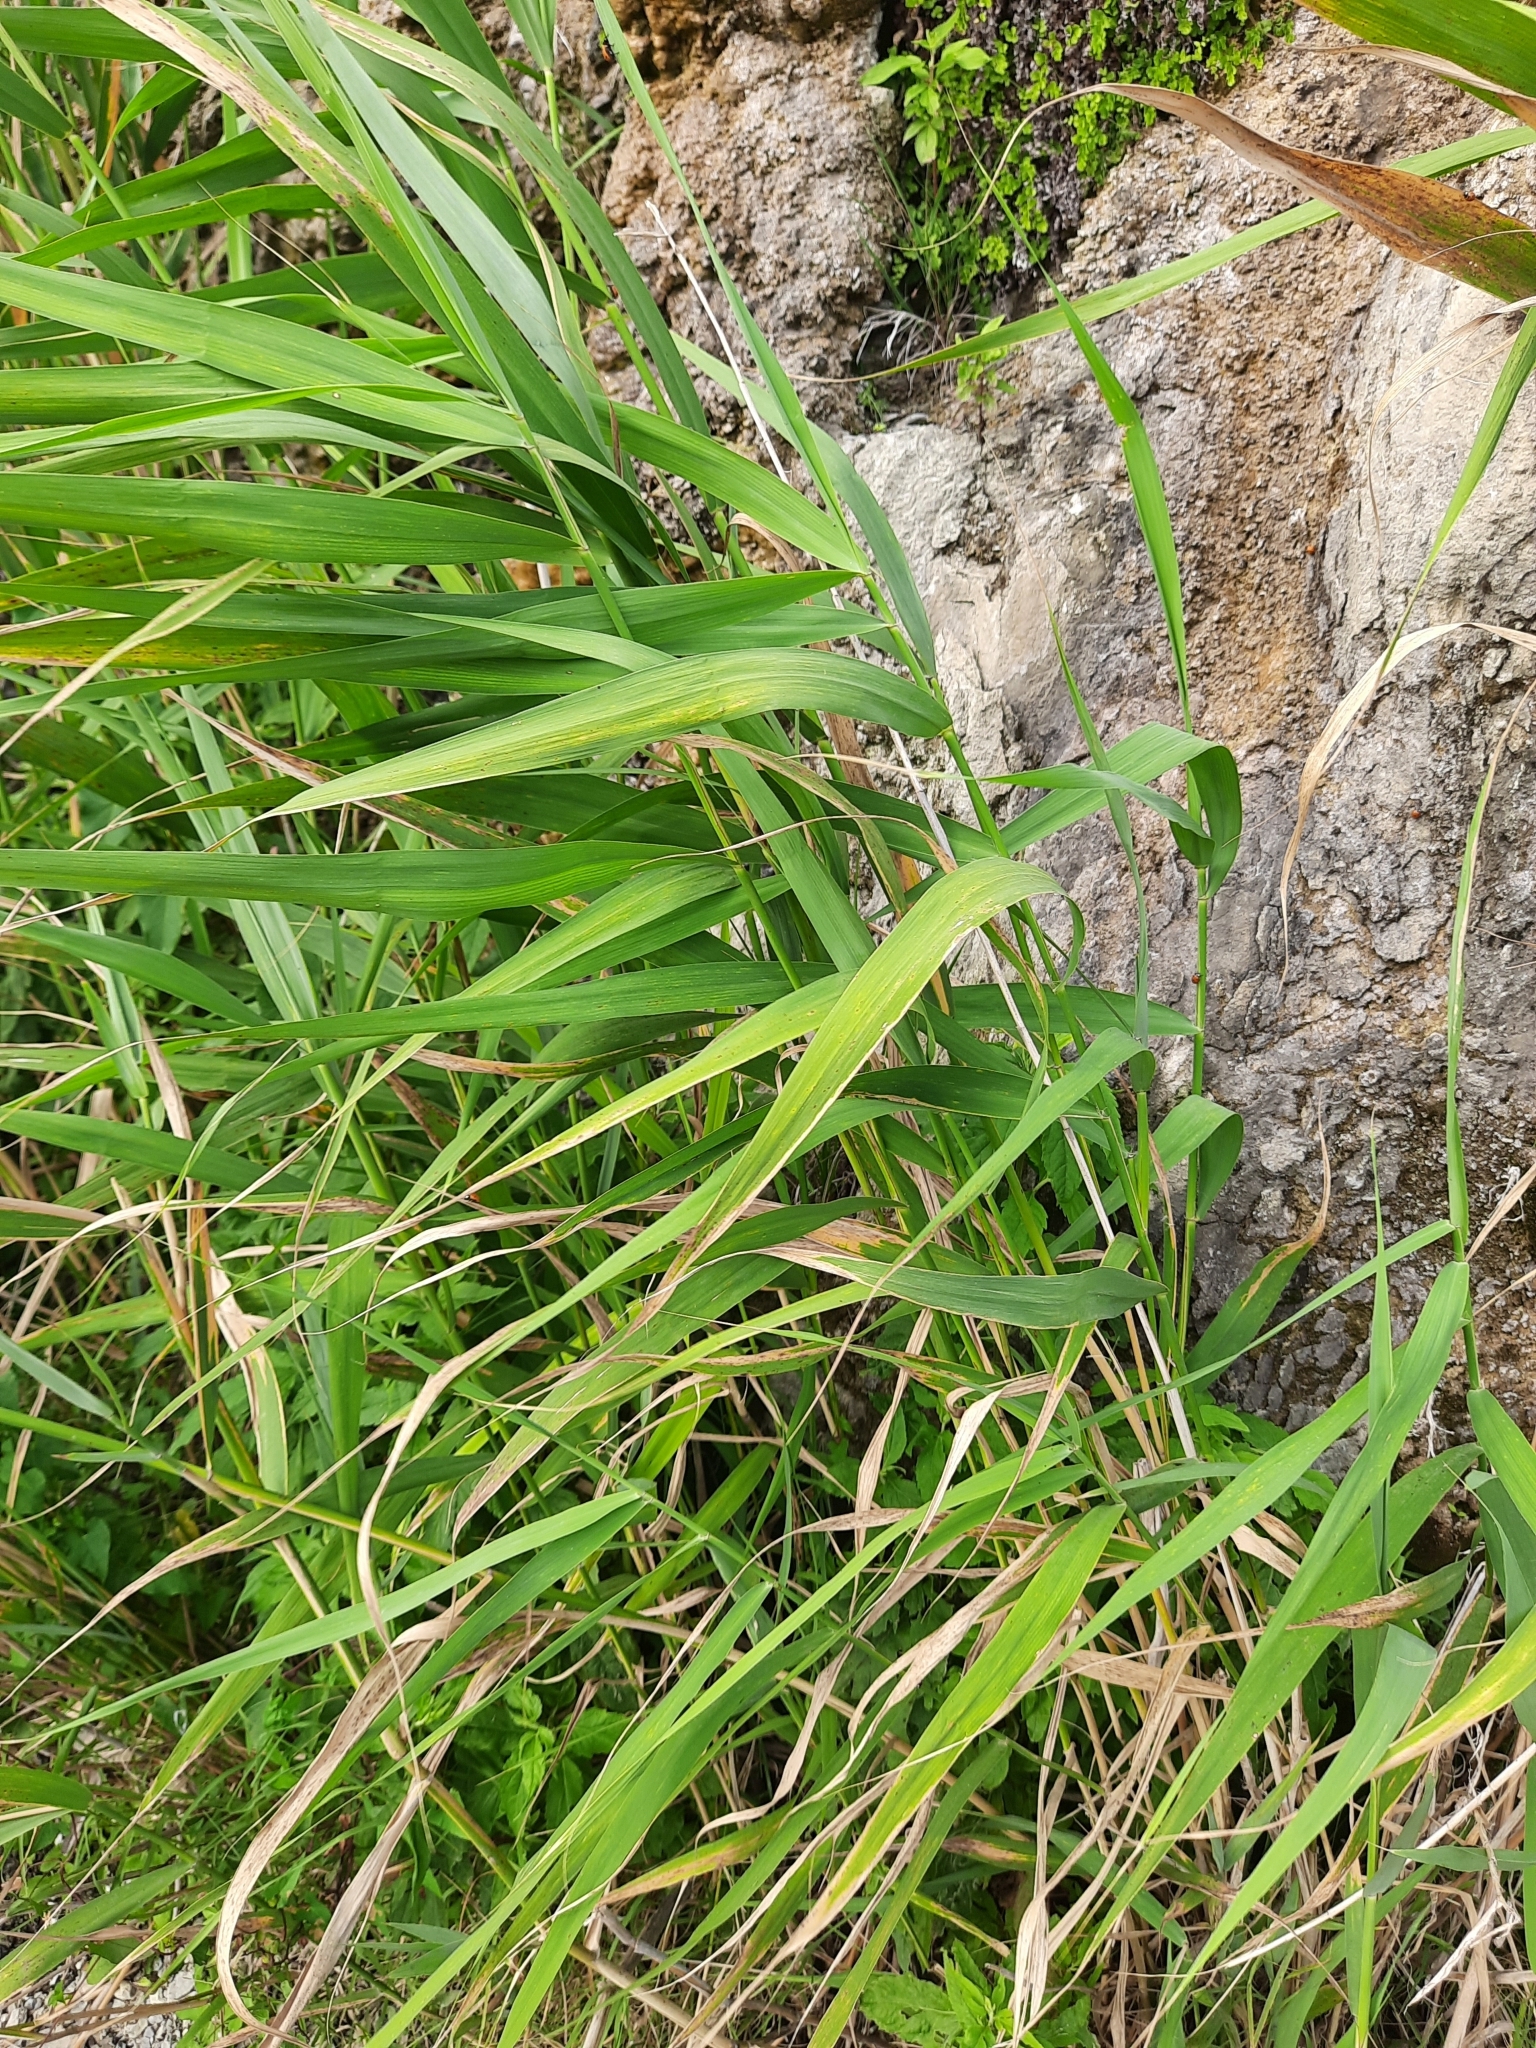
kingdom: Plantae
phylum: Tracheophyta
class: Liliopsida
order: Poales
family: Poaceae
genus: Phragmites
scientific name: Phragmites australis
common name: Common reed
